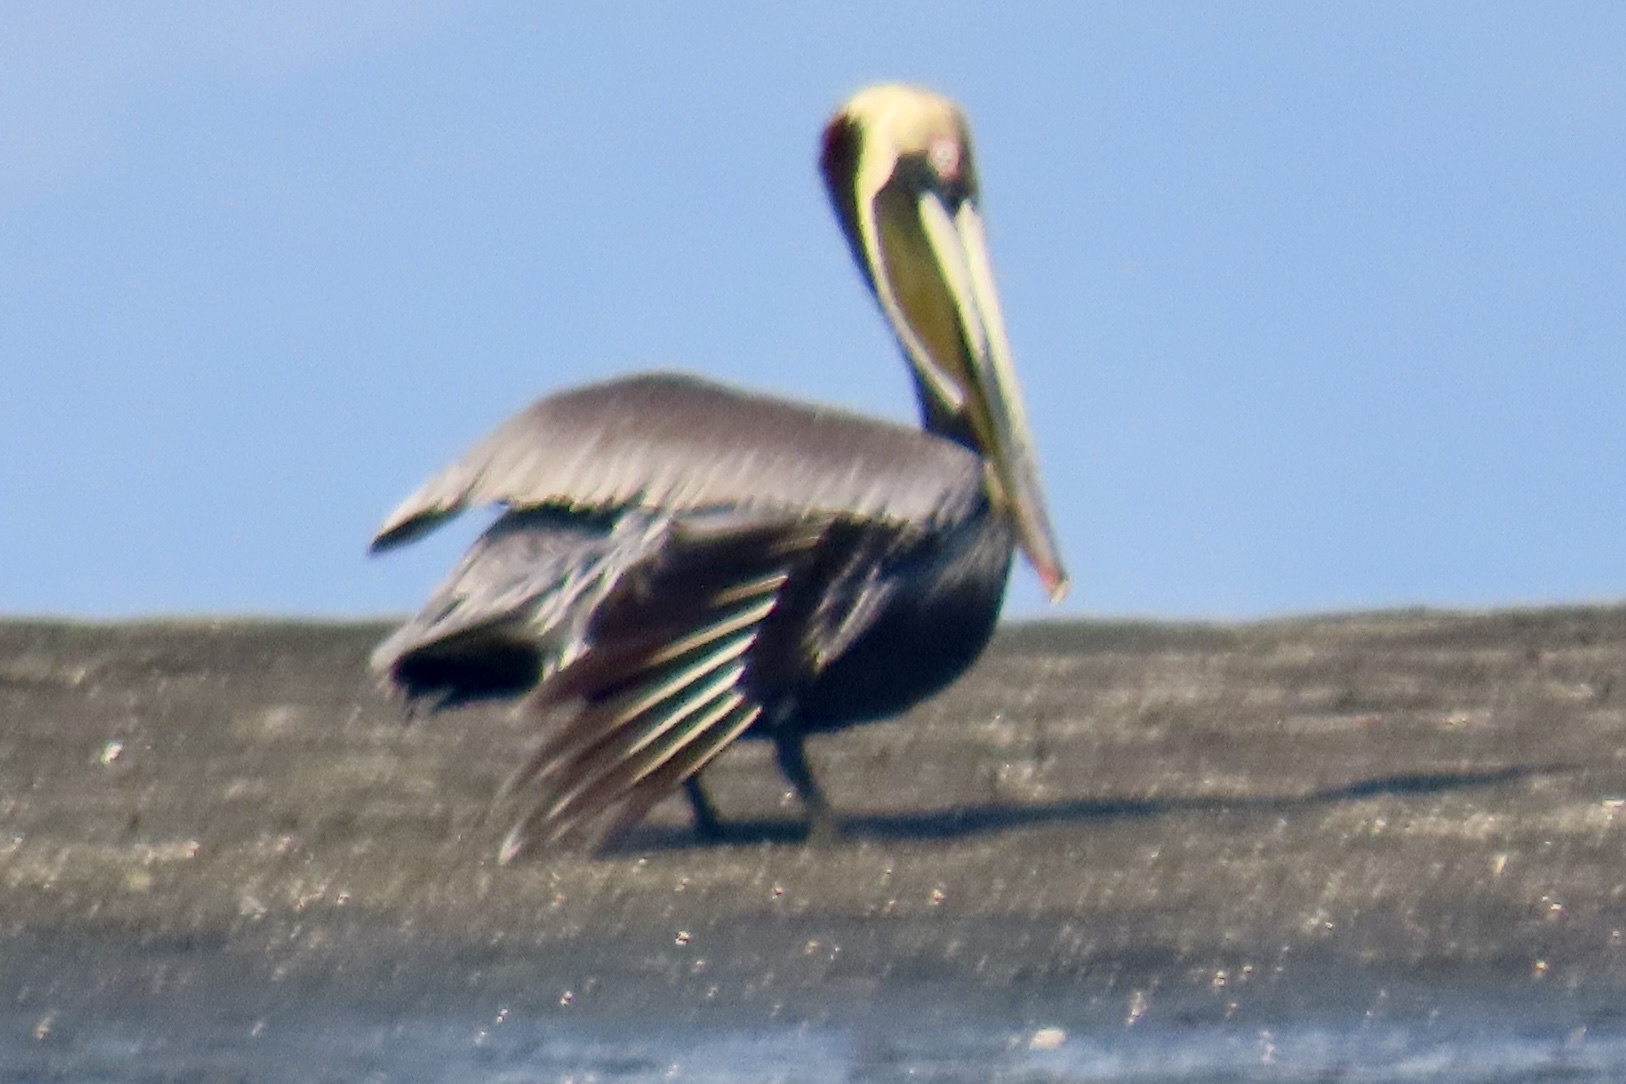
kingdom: Animalia
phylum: Chordata
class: Aves
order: Pelecaniformes
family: Pelecanidae
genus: Pelecanus
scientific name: Pelecanus occidentalis
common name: Brown pelican
